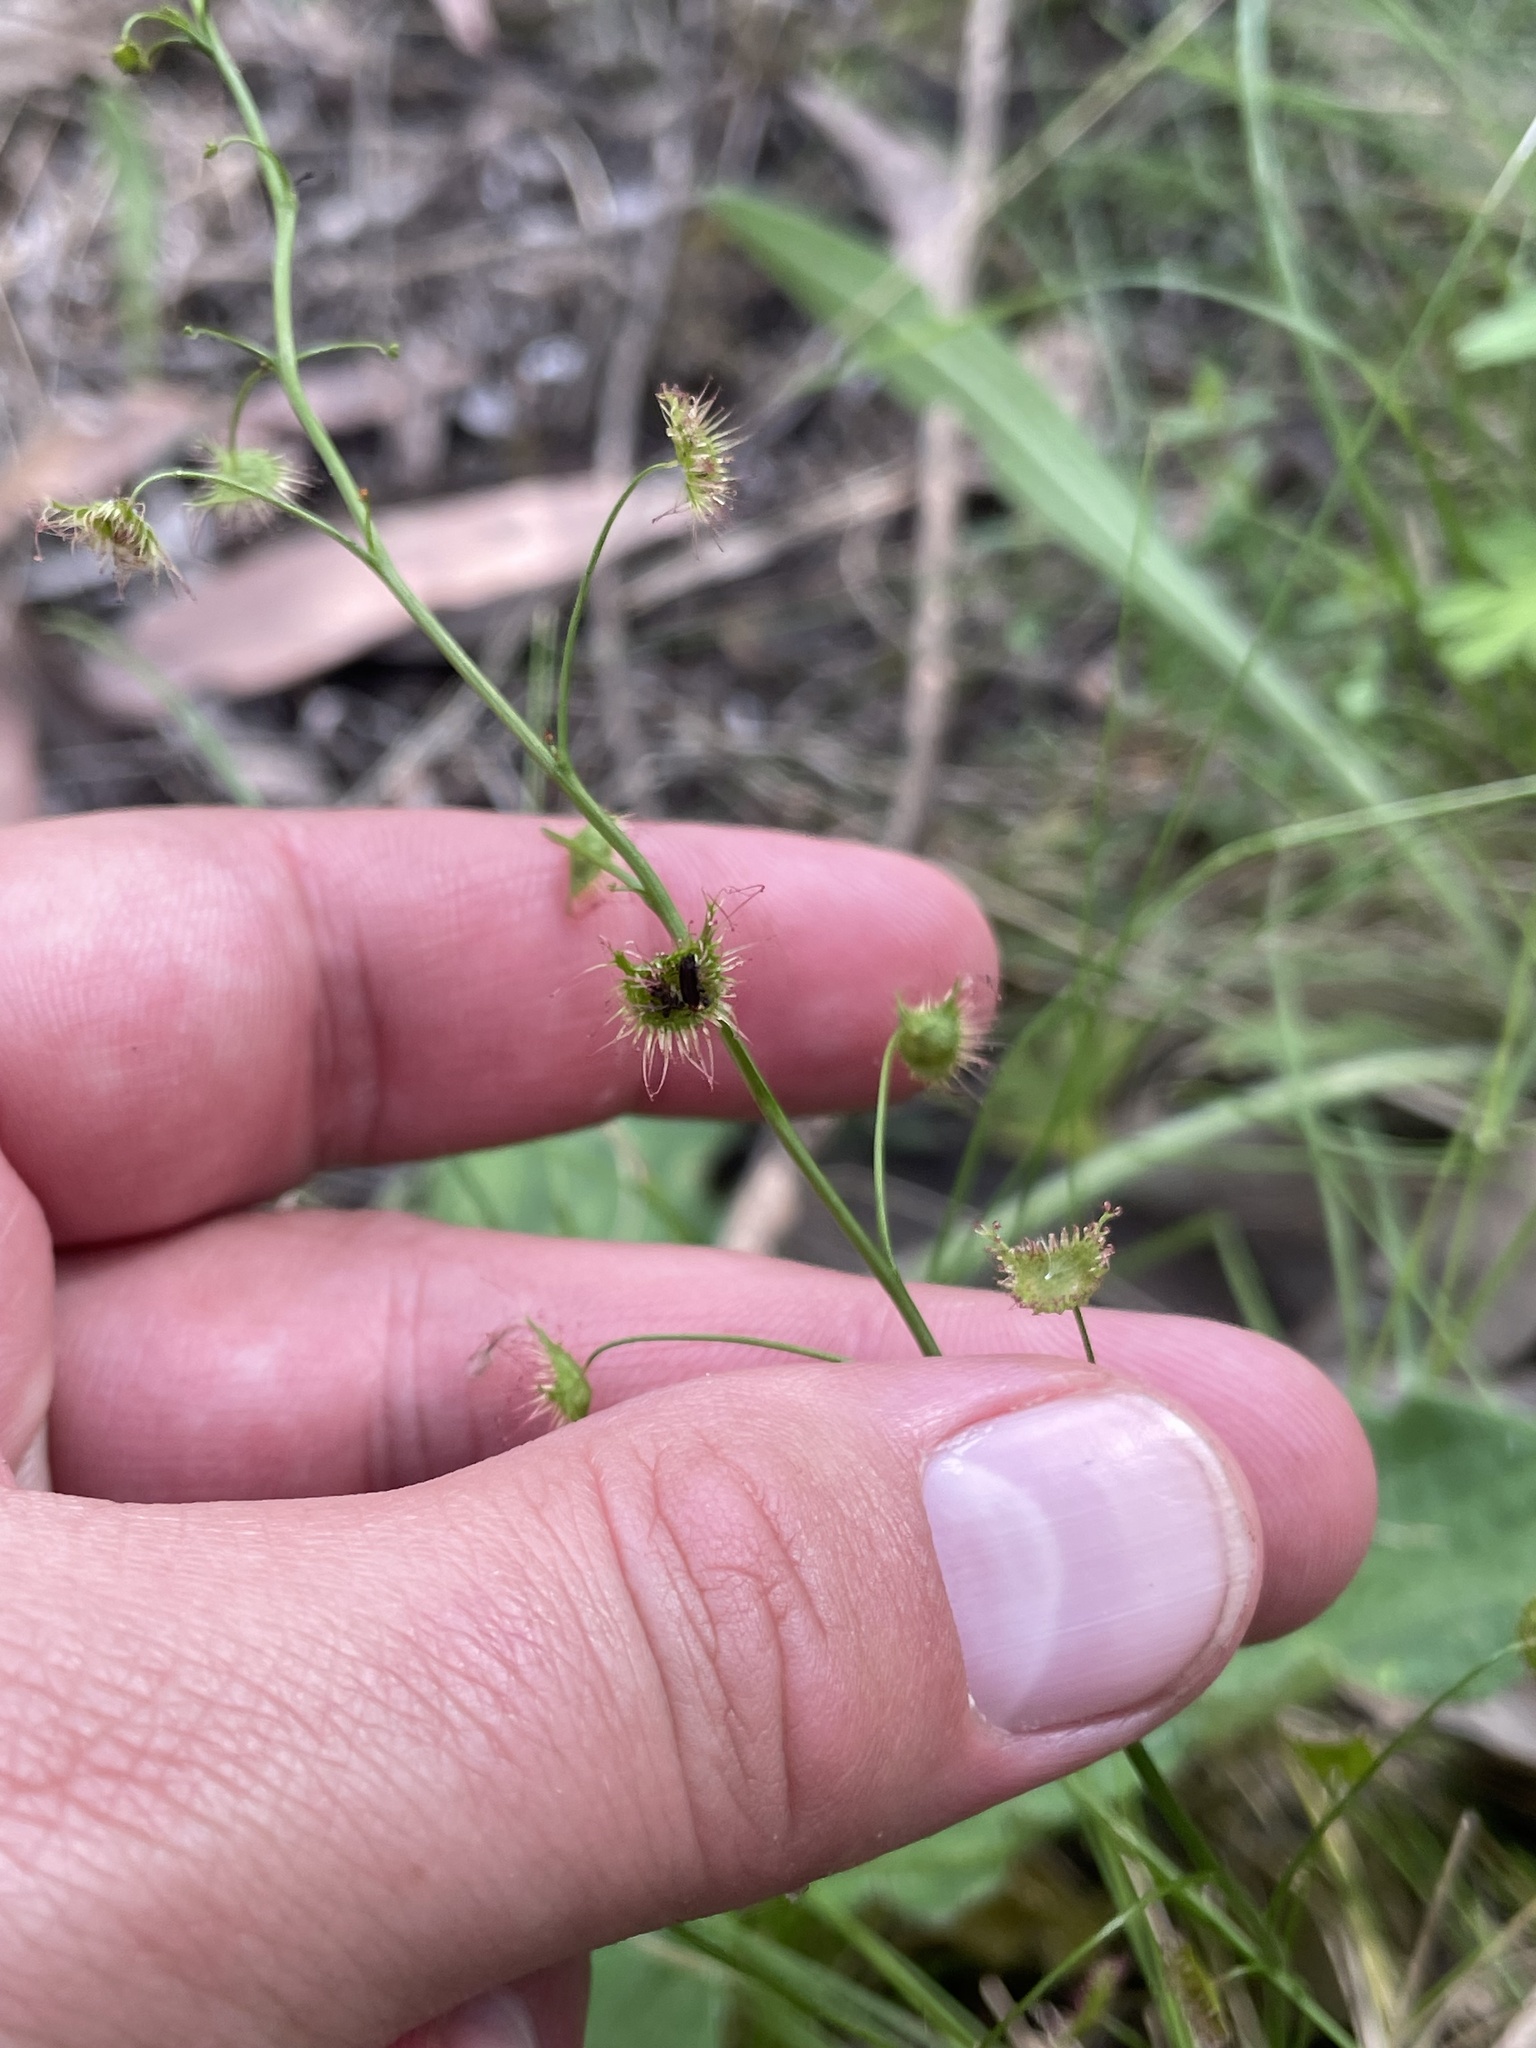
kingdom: Plantae
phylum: Tracheophyta
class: Magnoliopsida
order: Caryophyllales
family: Droseraceae
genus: Drosera
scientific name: Drosera peltata
